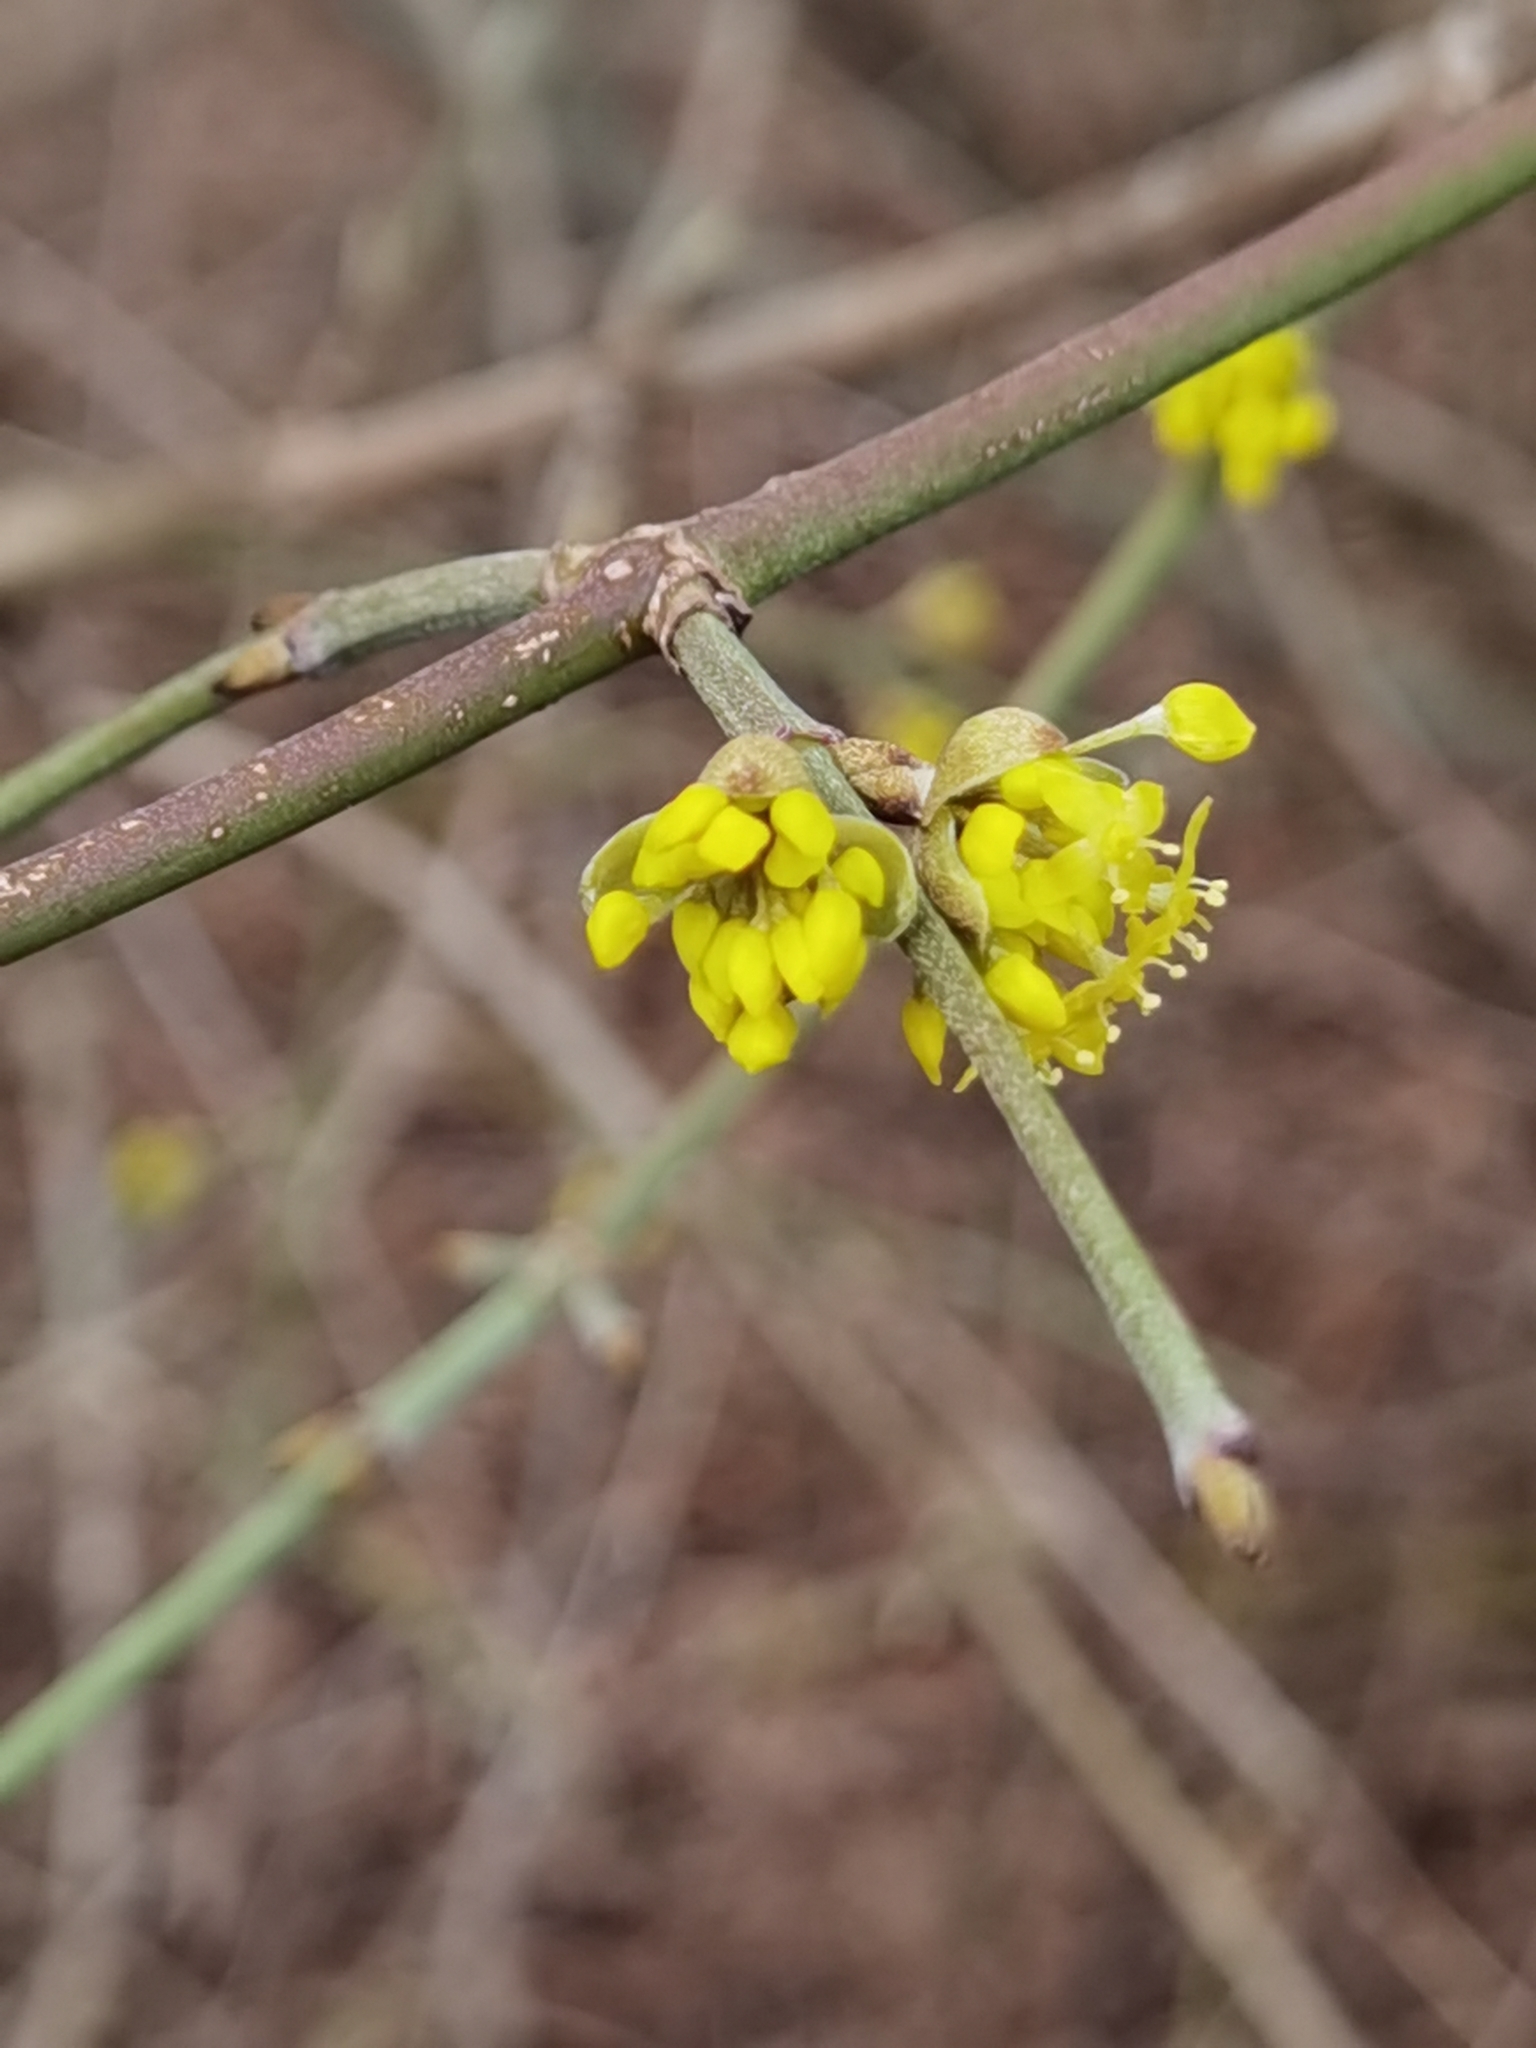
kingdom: Plantae
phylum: Tracheophyta
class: Magnoliopsida
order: Cornales
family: Cornaceae
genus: Cornus
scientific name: Cornus mas
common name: Cornelian-cherry
